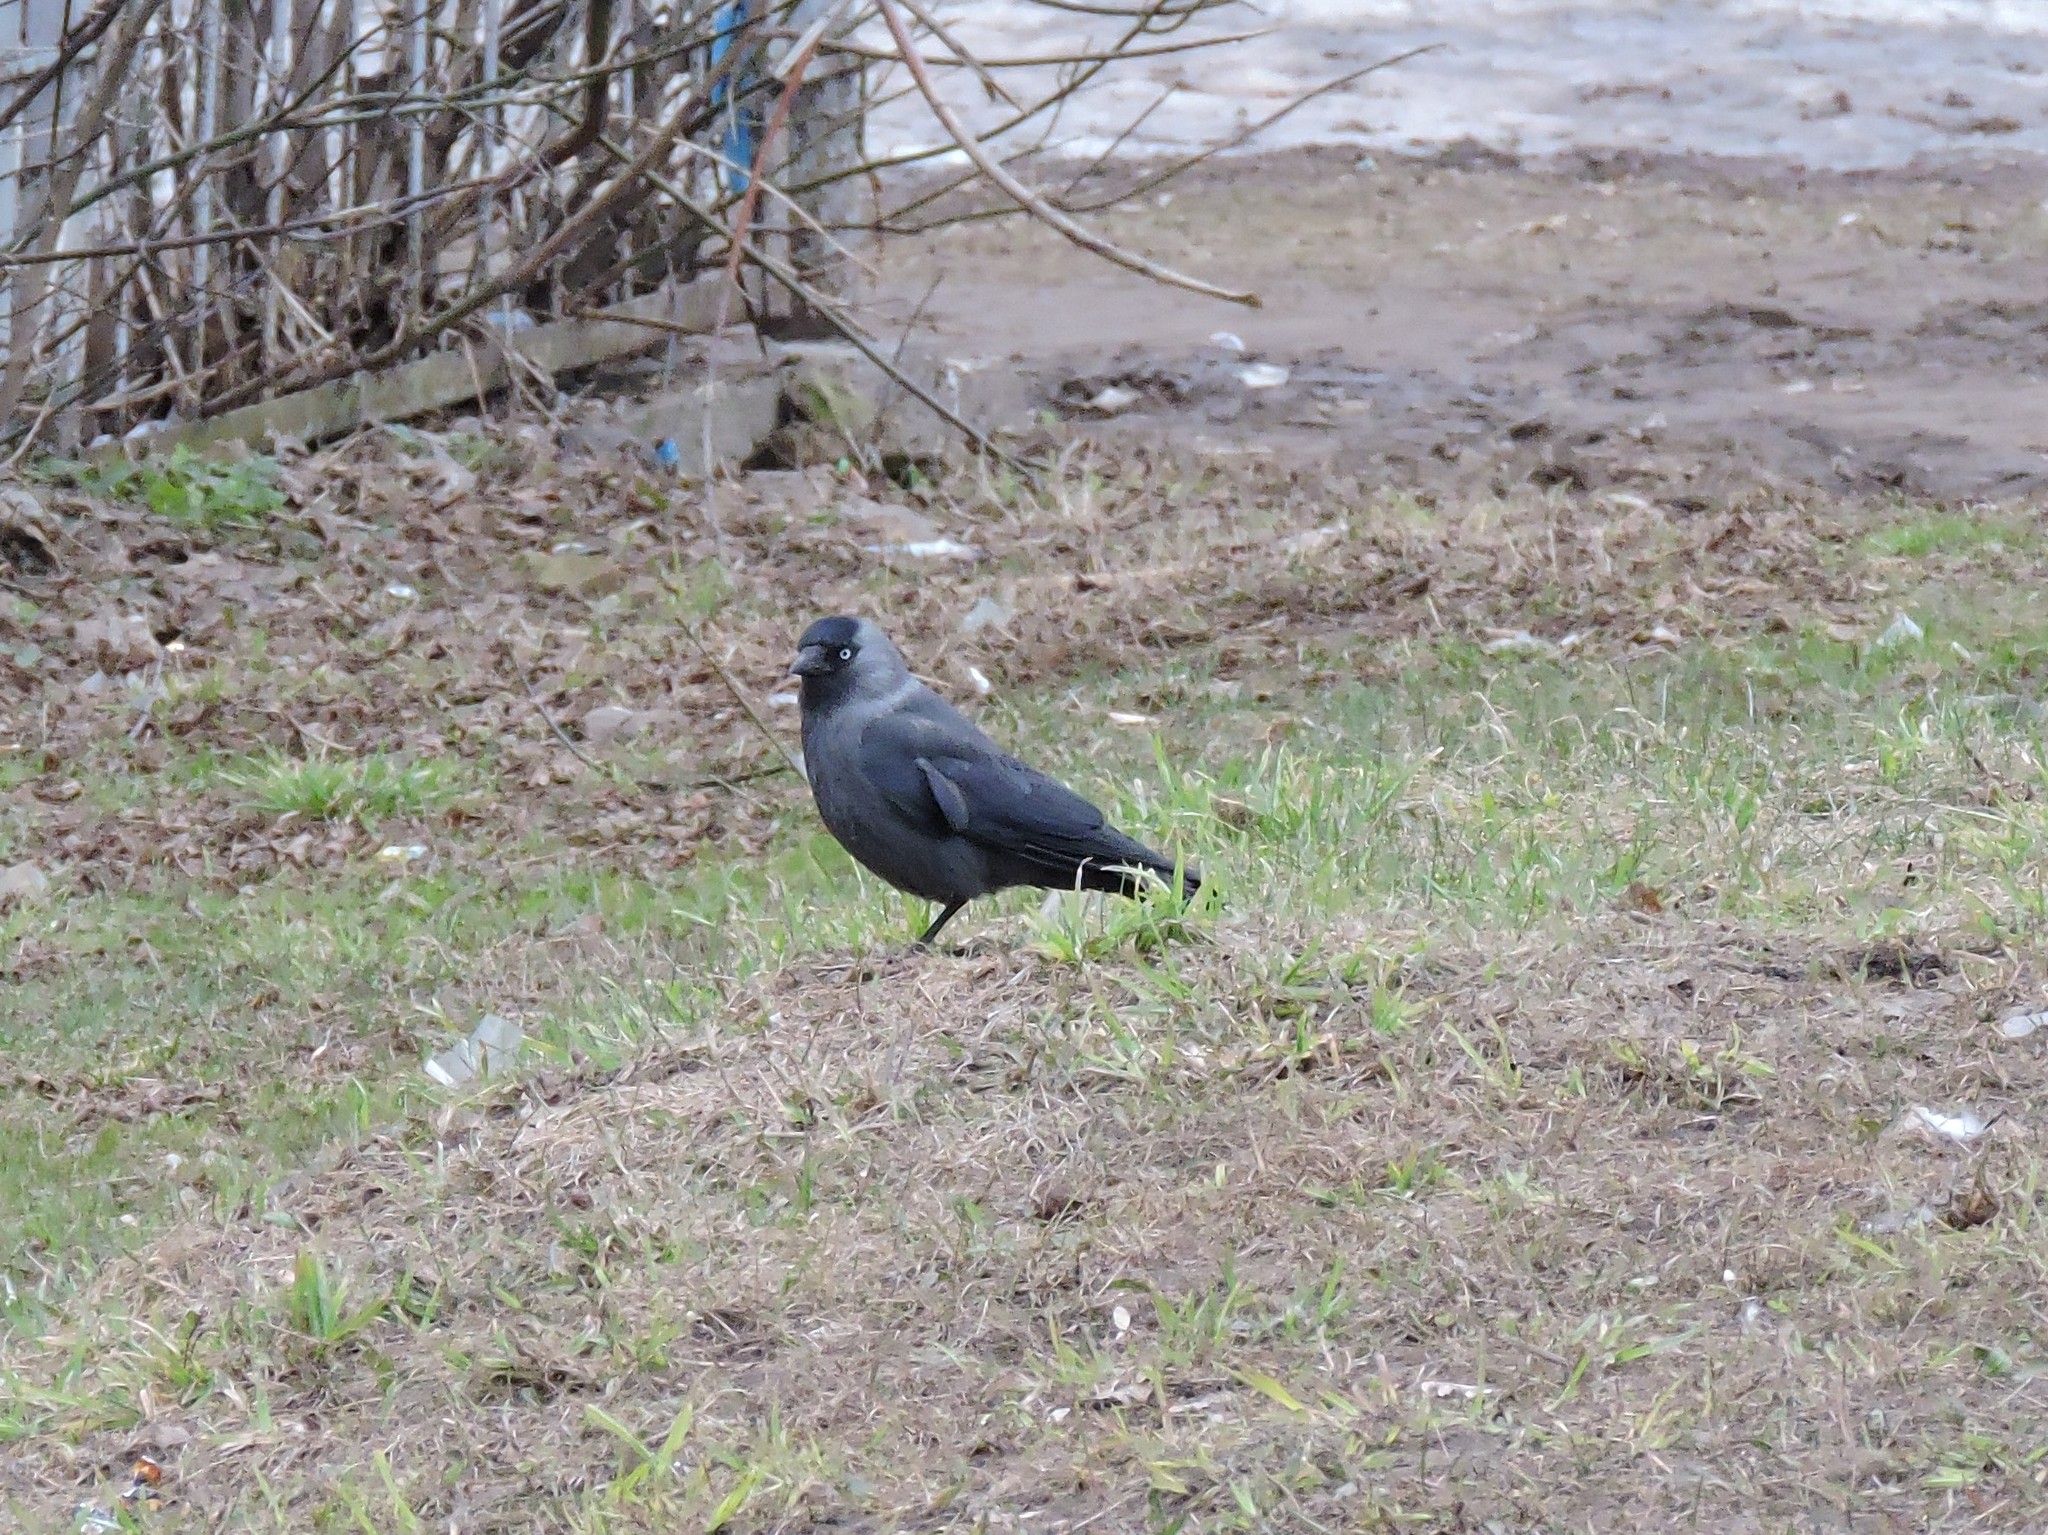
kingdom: Animalia
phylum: Chordata
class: Aves
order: Passeriformes
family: Corvidae
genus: Coloeus
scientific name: Coloeus monedula
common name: Western jackdaw
